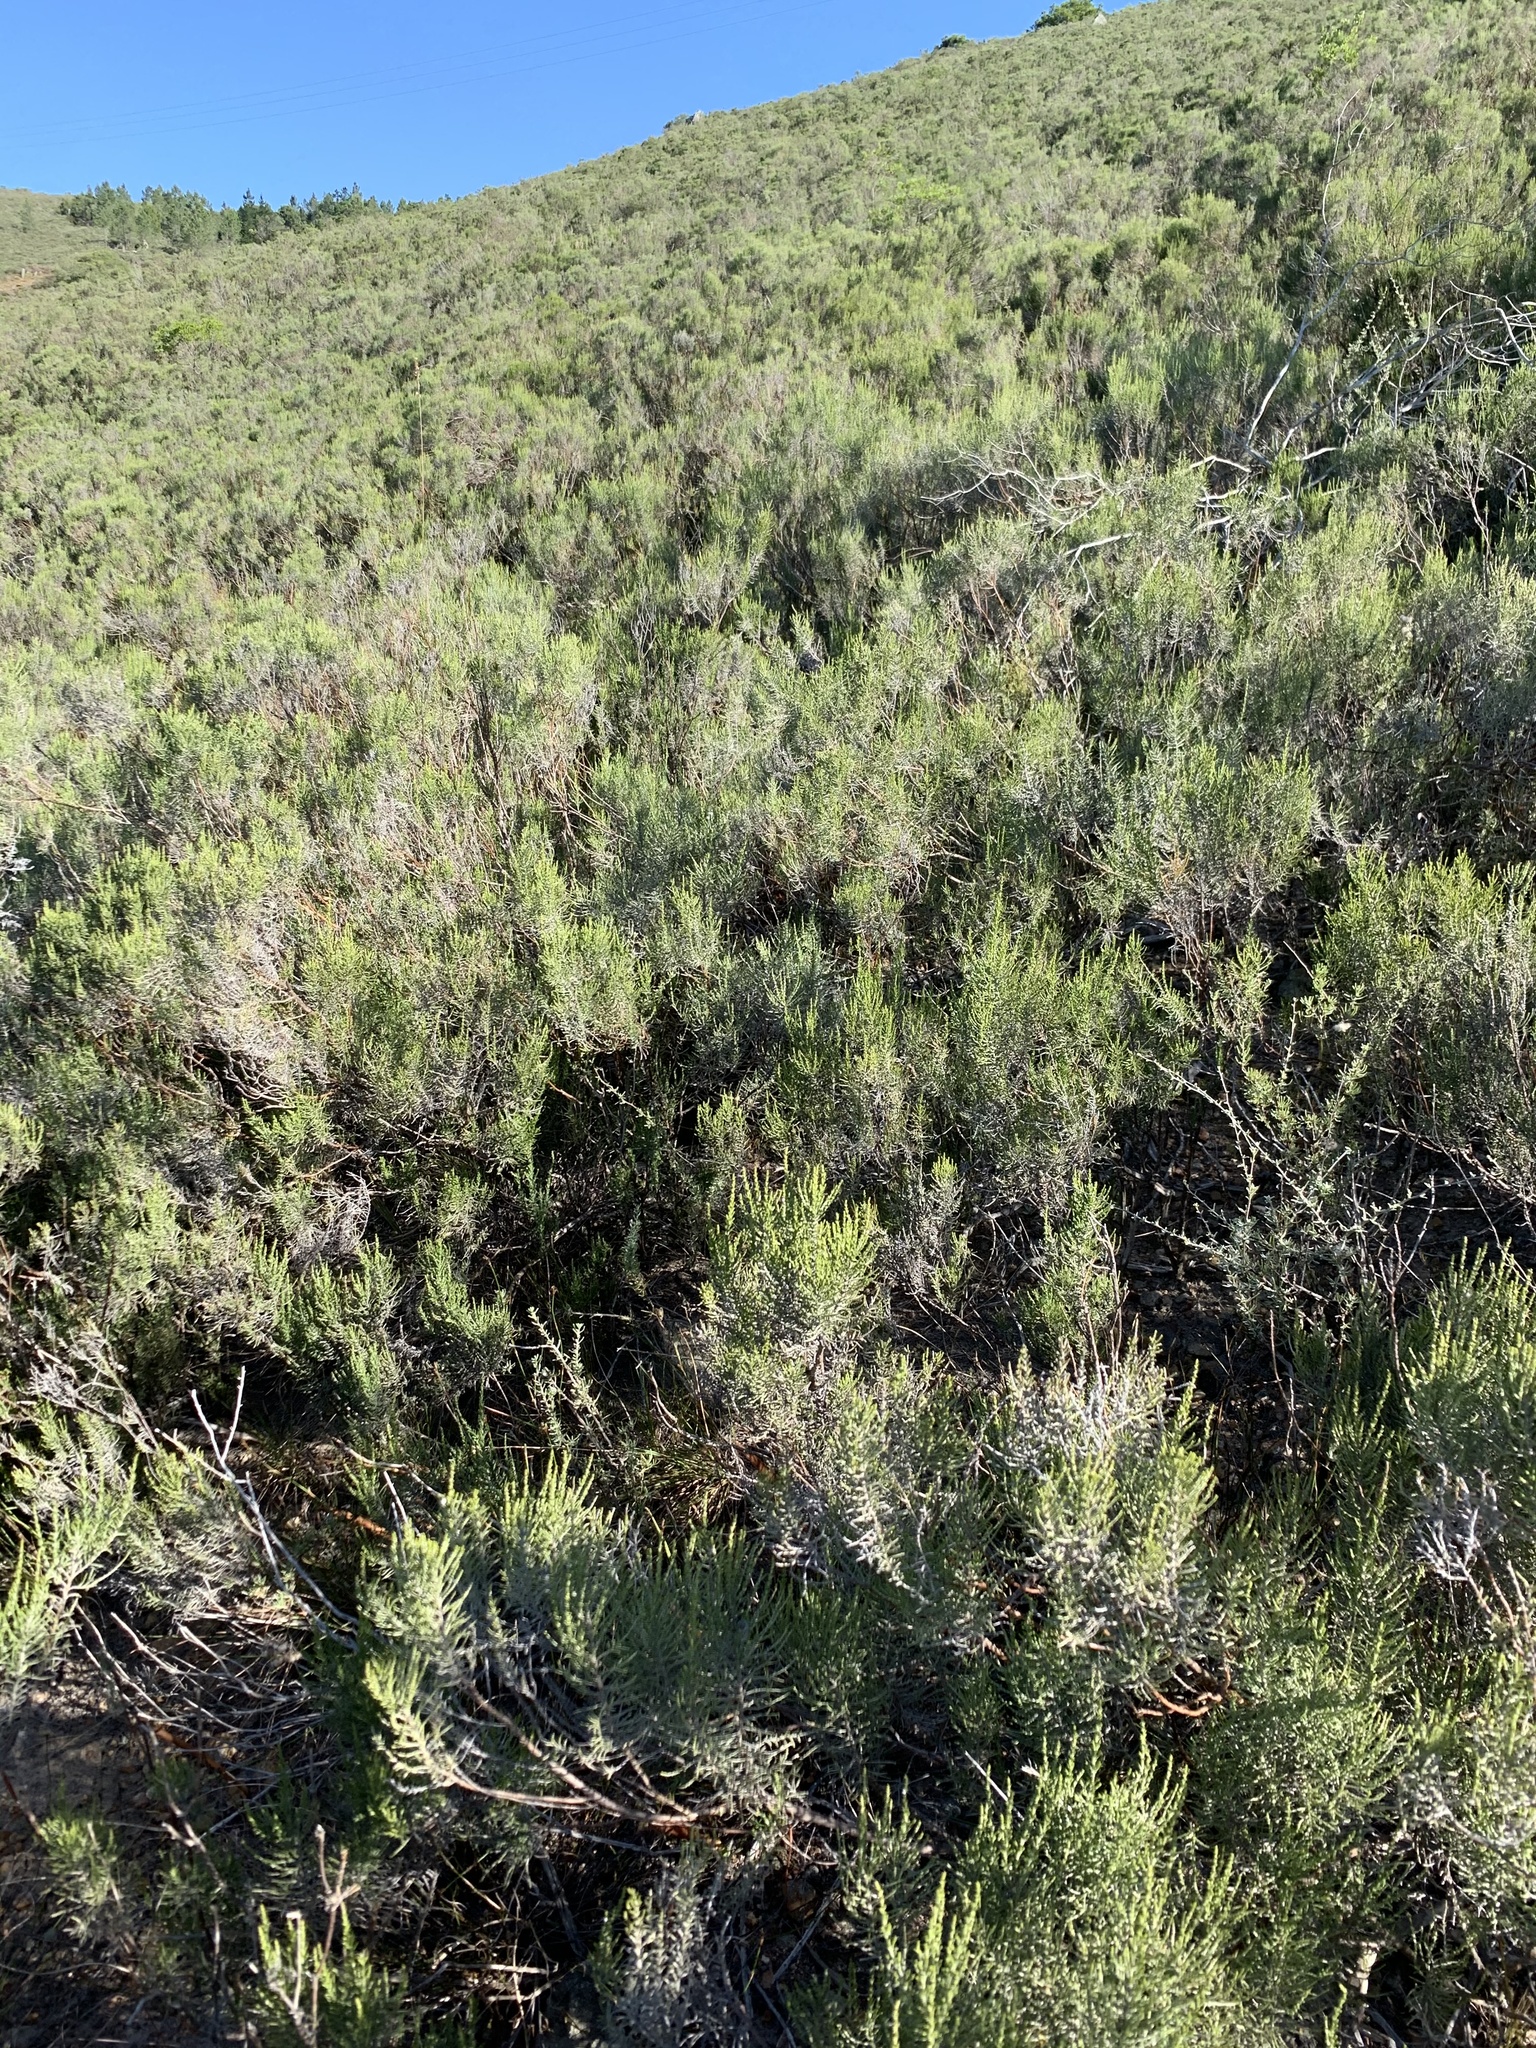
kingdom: Plantae
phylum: Tracheophyta
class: Magnoliopsida
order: Asterales
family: Asteraceae
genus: Dicerothamnus
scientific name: Dicerothamnus rhinocerotis
